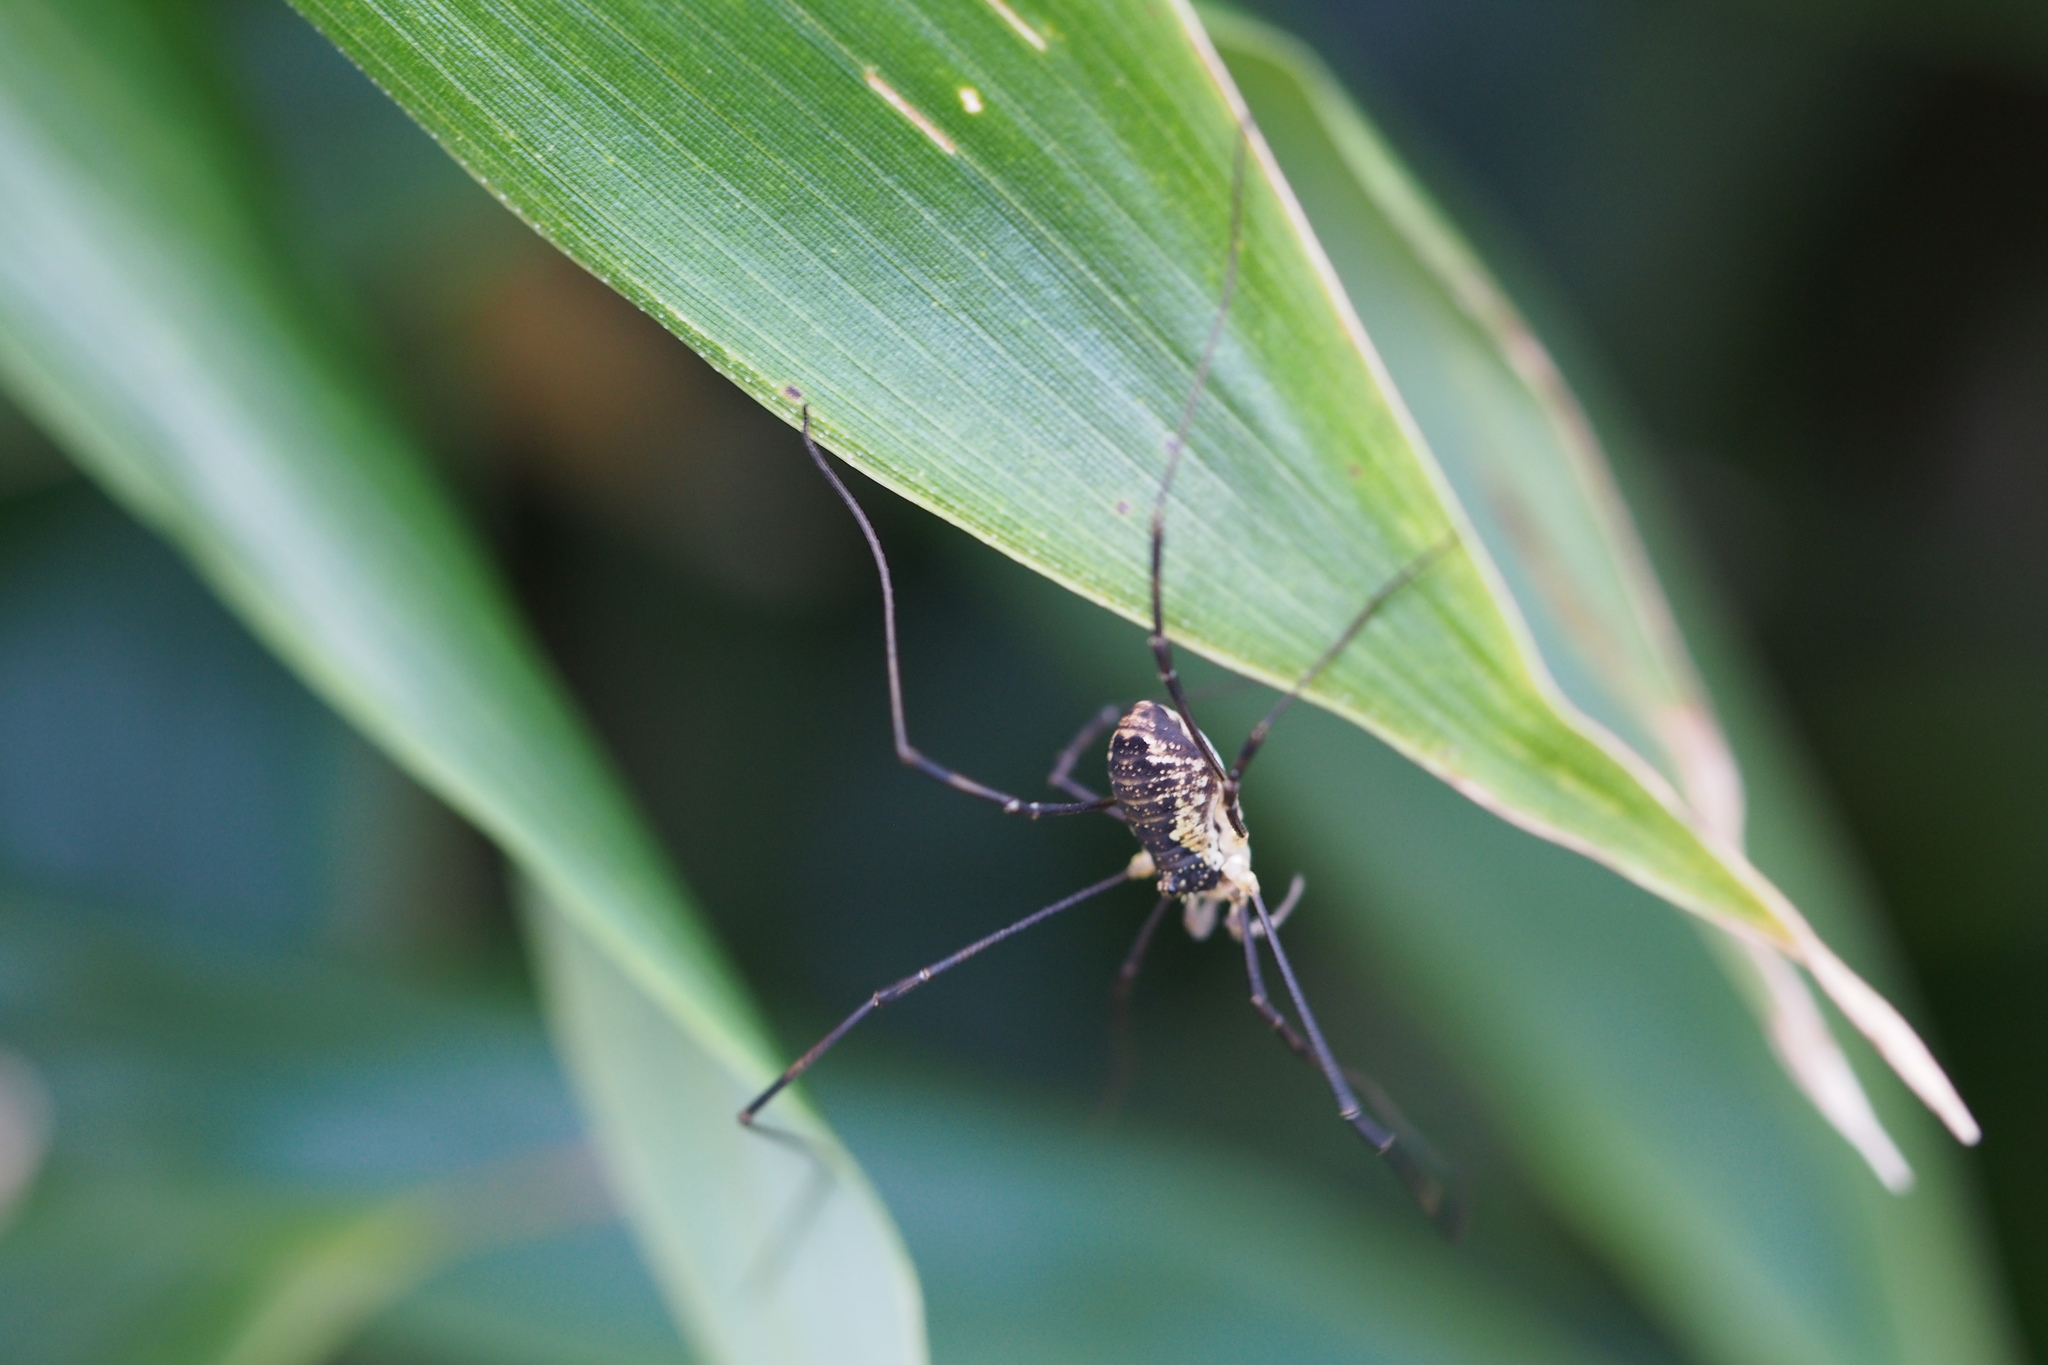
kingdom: Animalia
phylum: Arthropoda
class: Arachnida
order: Opiliones
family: Phalangiidae
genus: Odiellus
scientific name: Odiellus aspersus
